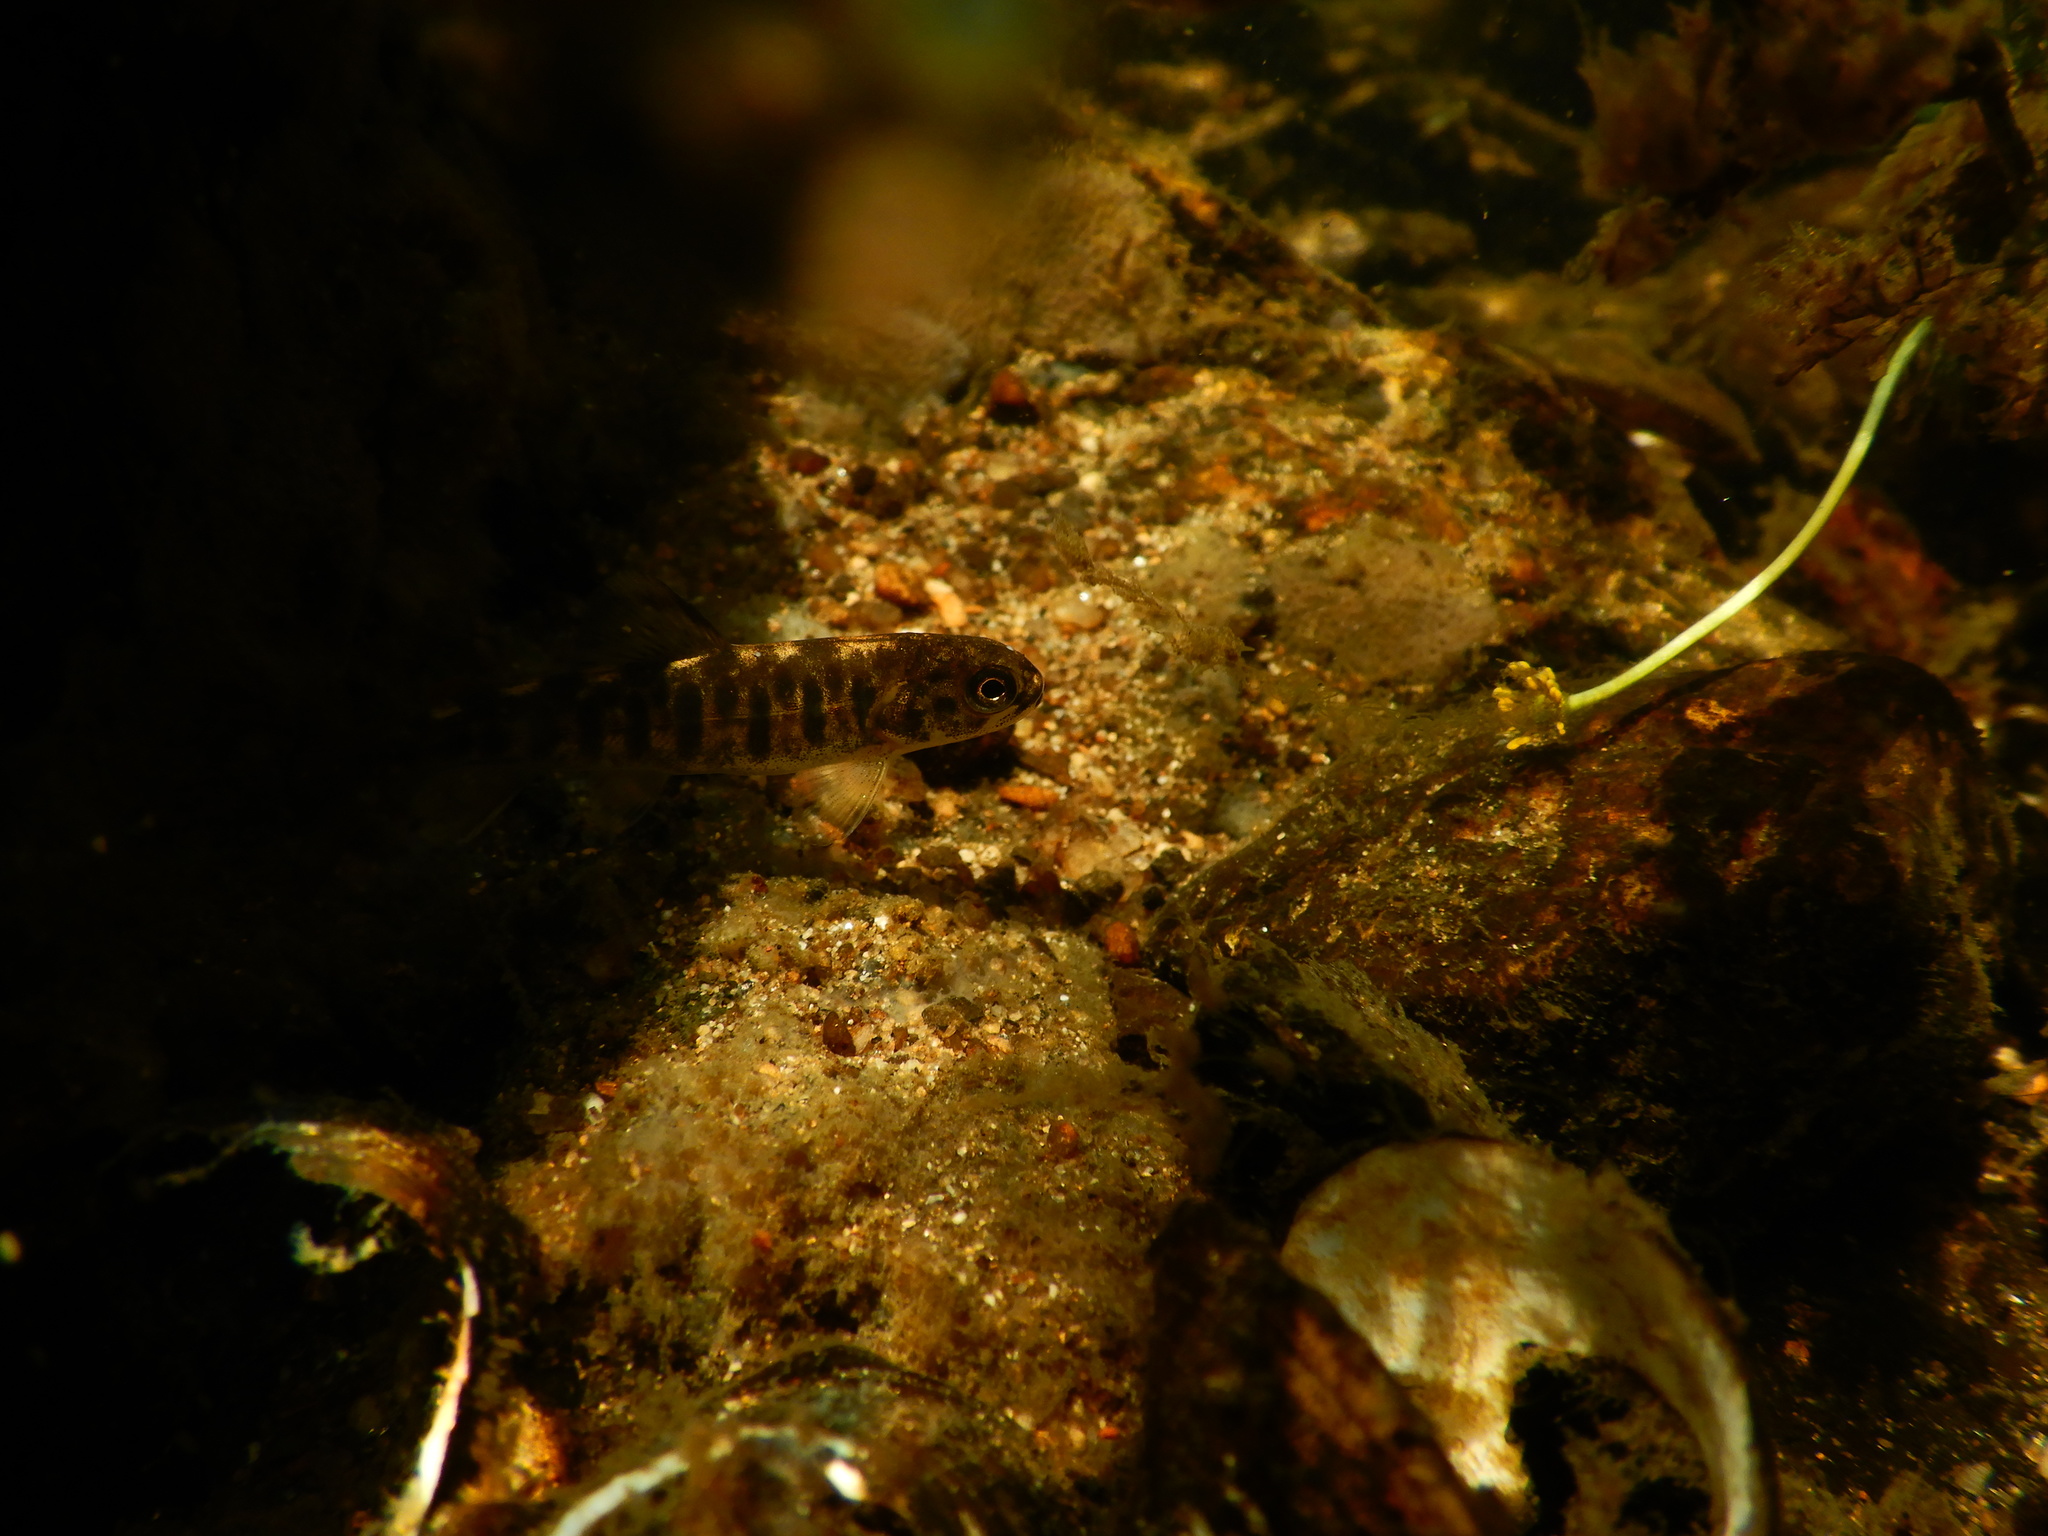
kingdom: Animalia
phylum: Chordata
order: Salmoniformes
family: Salmonidae
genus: Salmo
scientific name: Salmo trutta
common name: Brown trout
